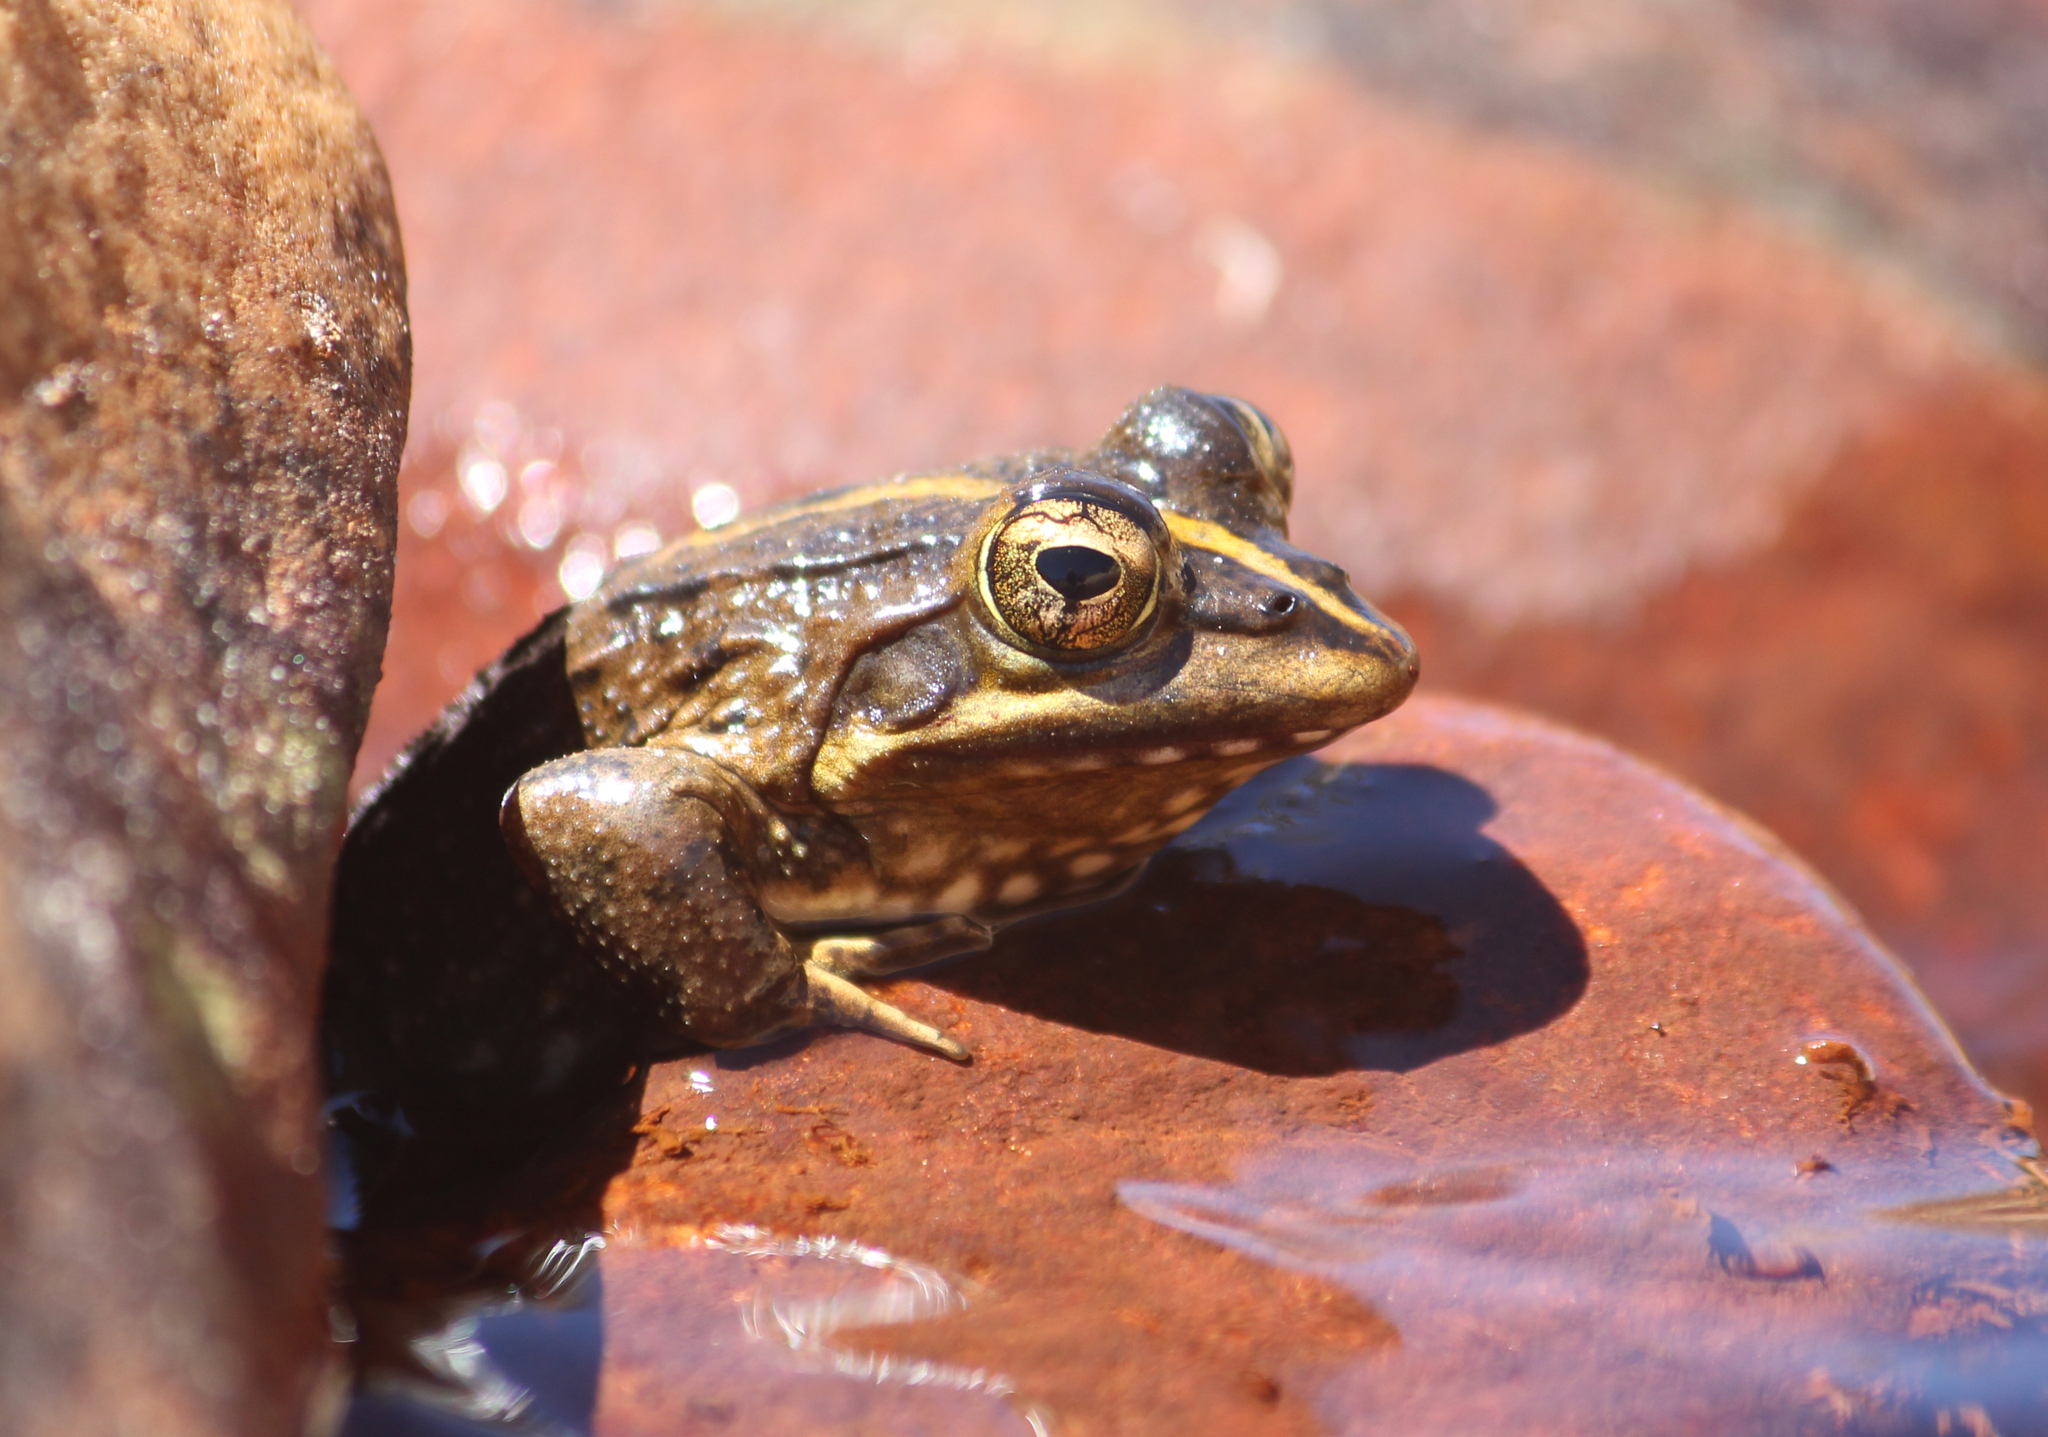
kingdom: Animalia
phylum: Chordata
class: Amphibia
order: Anura
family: Pyxicephalidae
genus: Amietia
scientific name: Amietia fuscigula
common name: Cape rana
